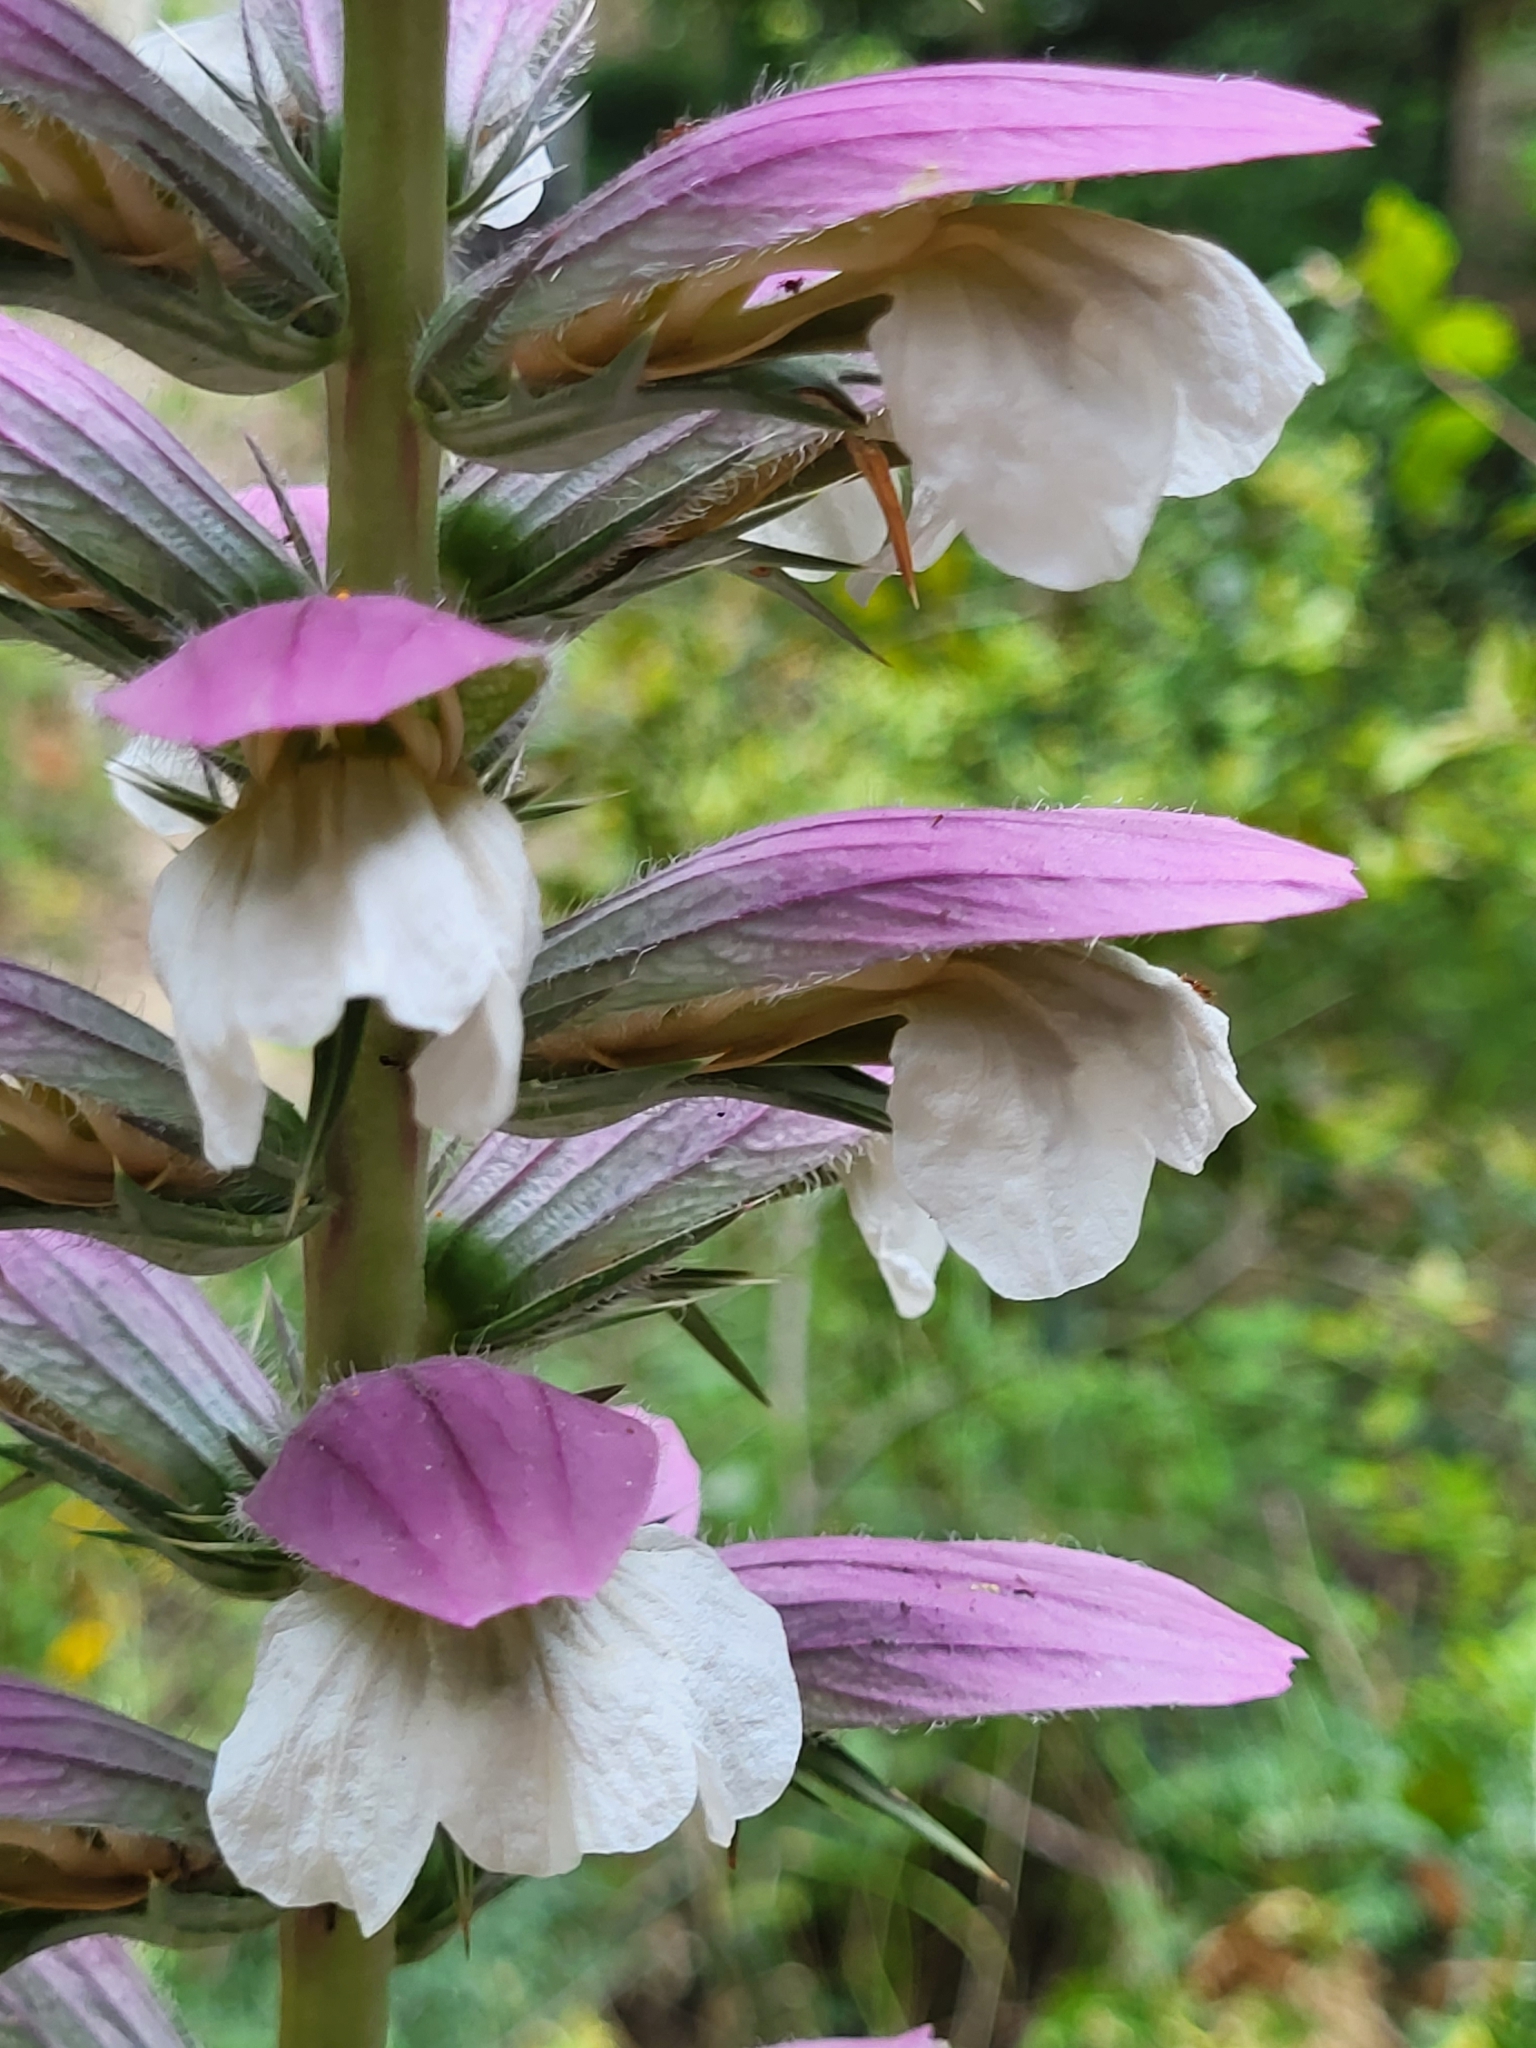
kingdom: Plantae
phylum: Tracheophyta
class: Magnoliopsida
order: Lamiales
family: Acanthaceae
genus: Acanthus
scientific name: Acanthus spinosus
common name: Spiny bear's-breech
